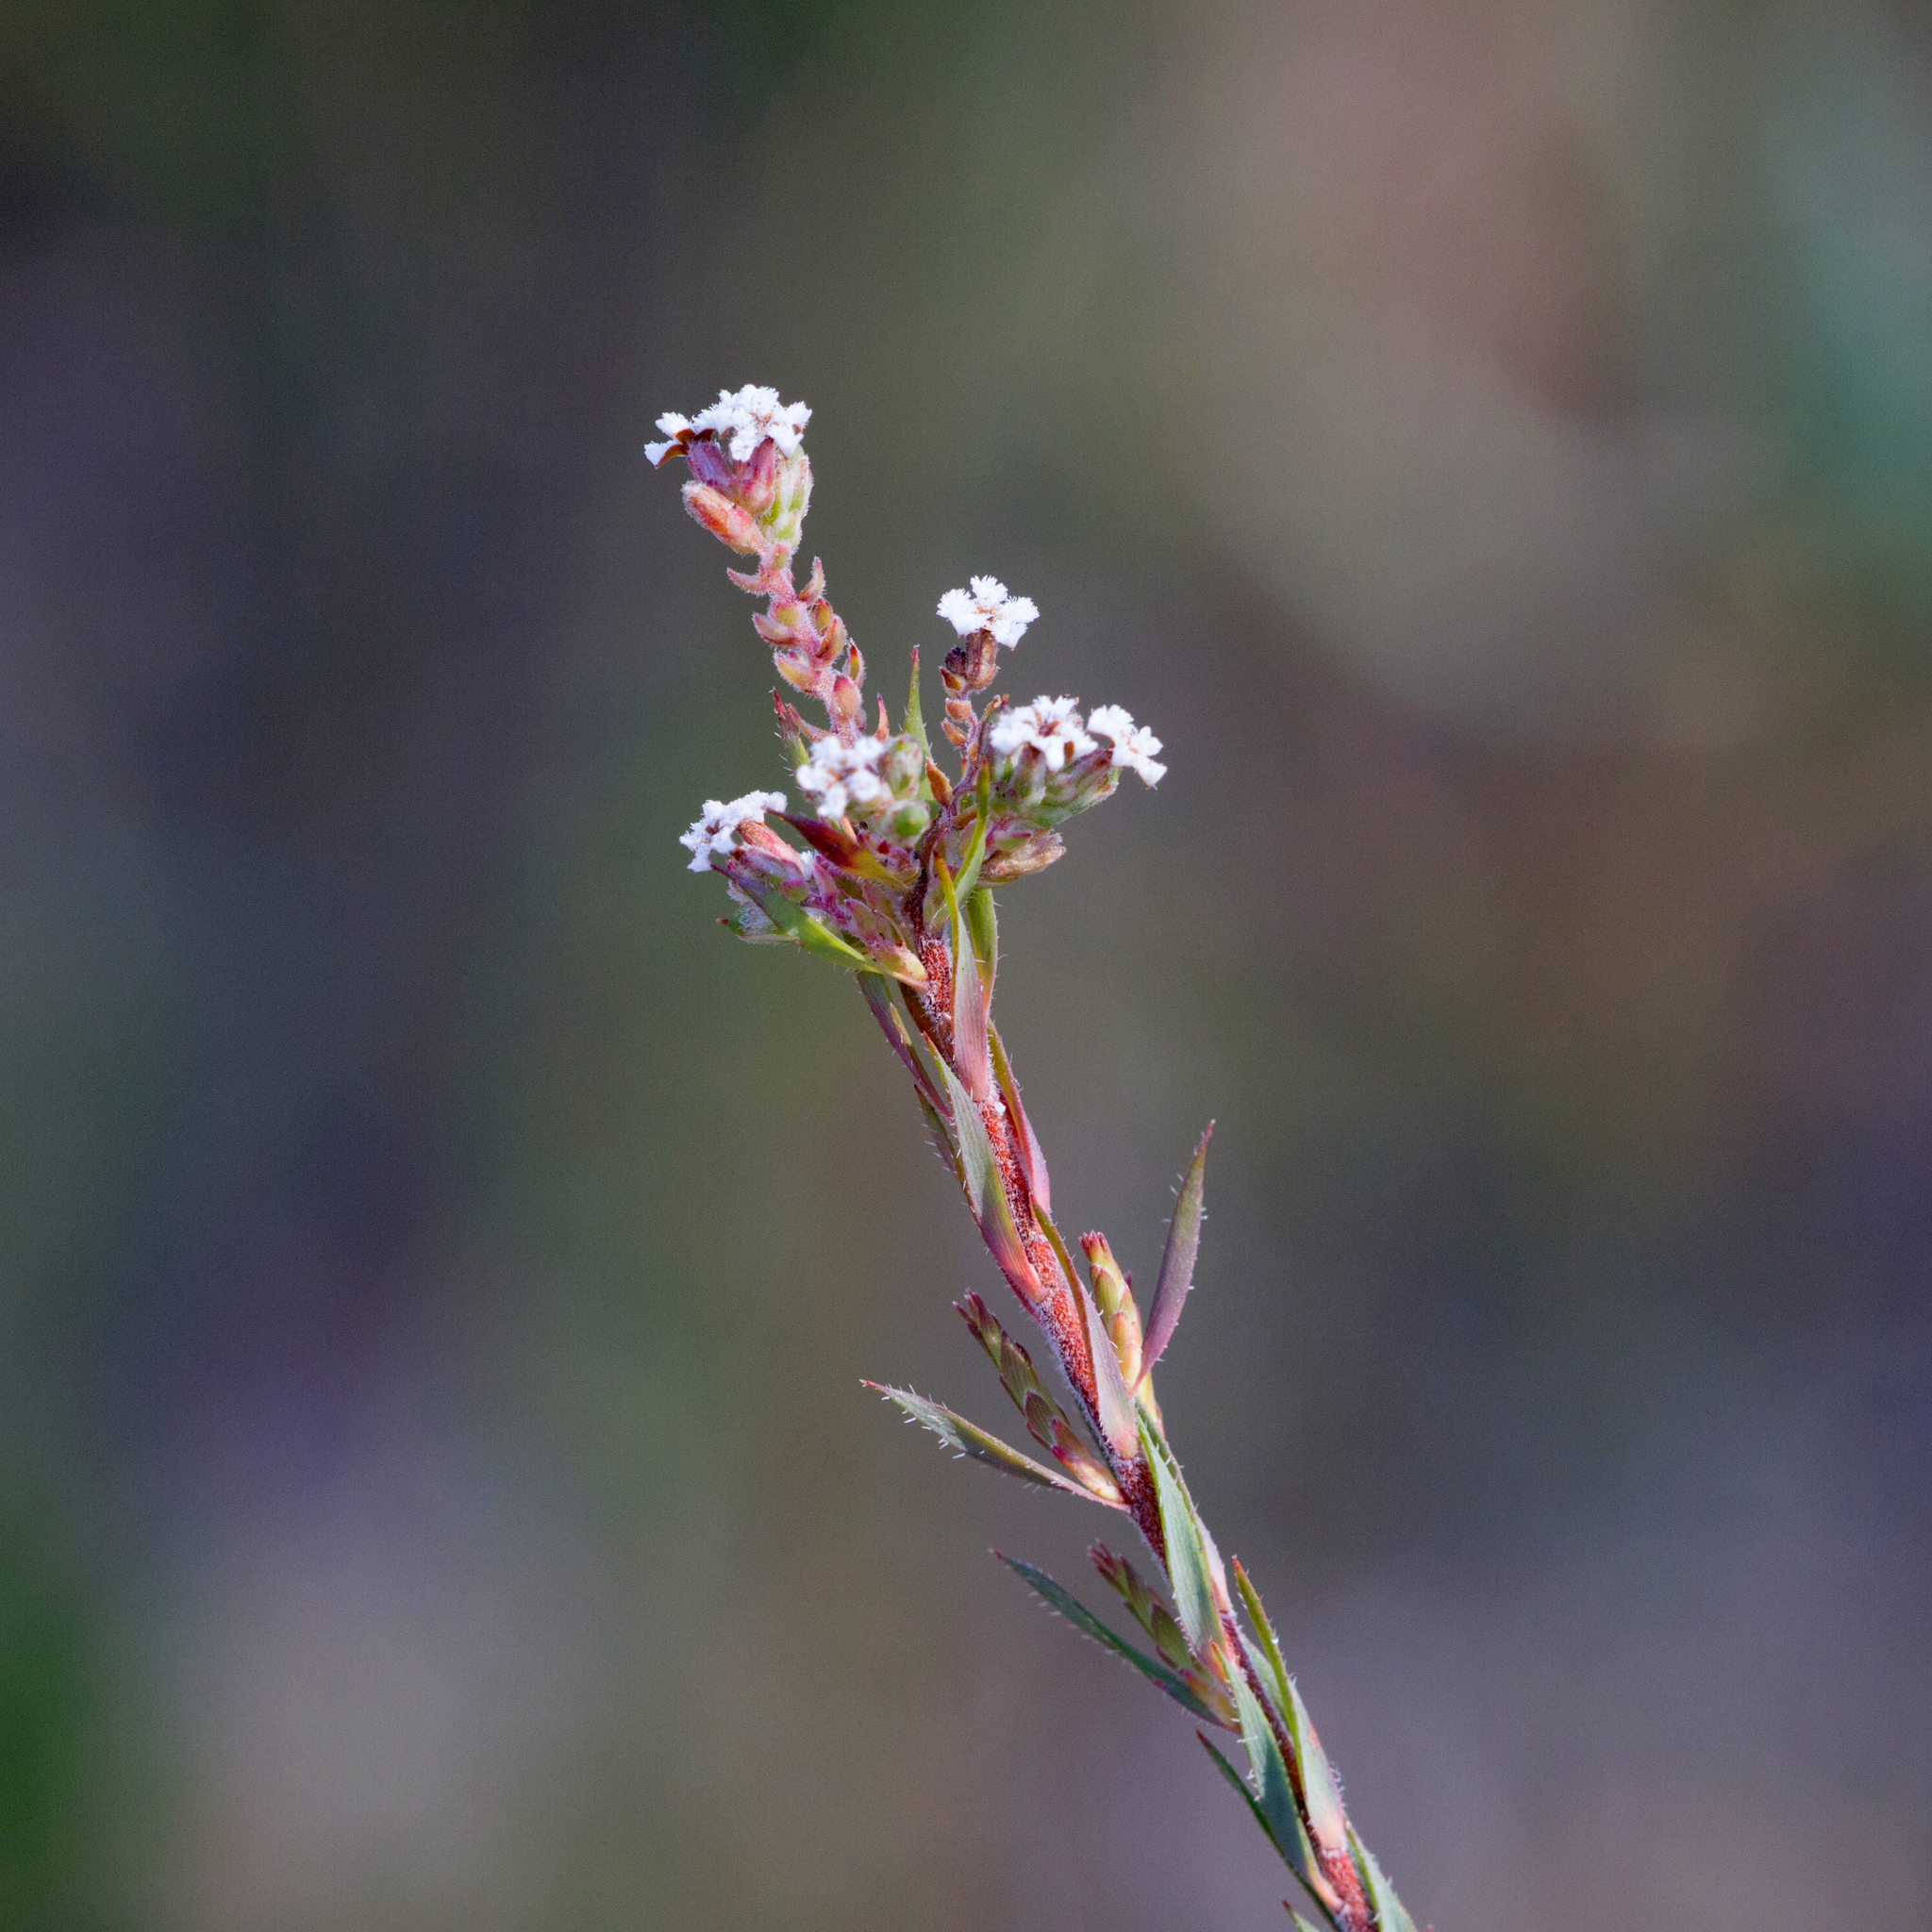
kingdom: Plantae
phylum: Tracheophyta
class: Magnoliopsida
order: Ericales
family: Ericaceae
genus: Leucopogon
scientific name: Leucopogon glacialis
